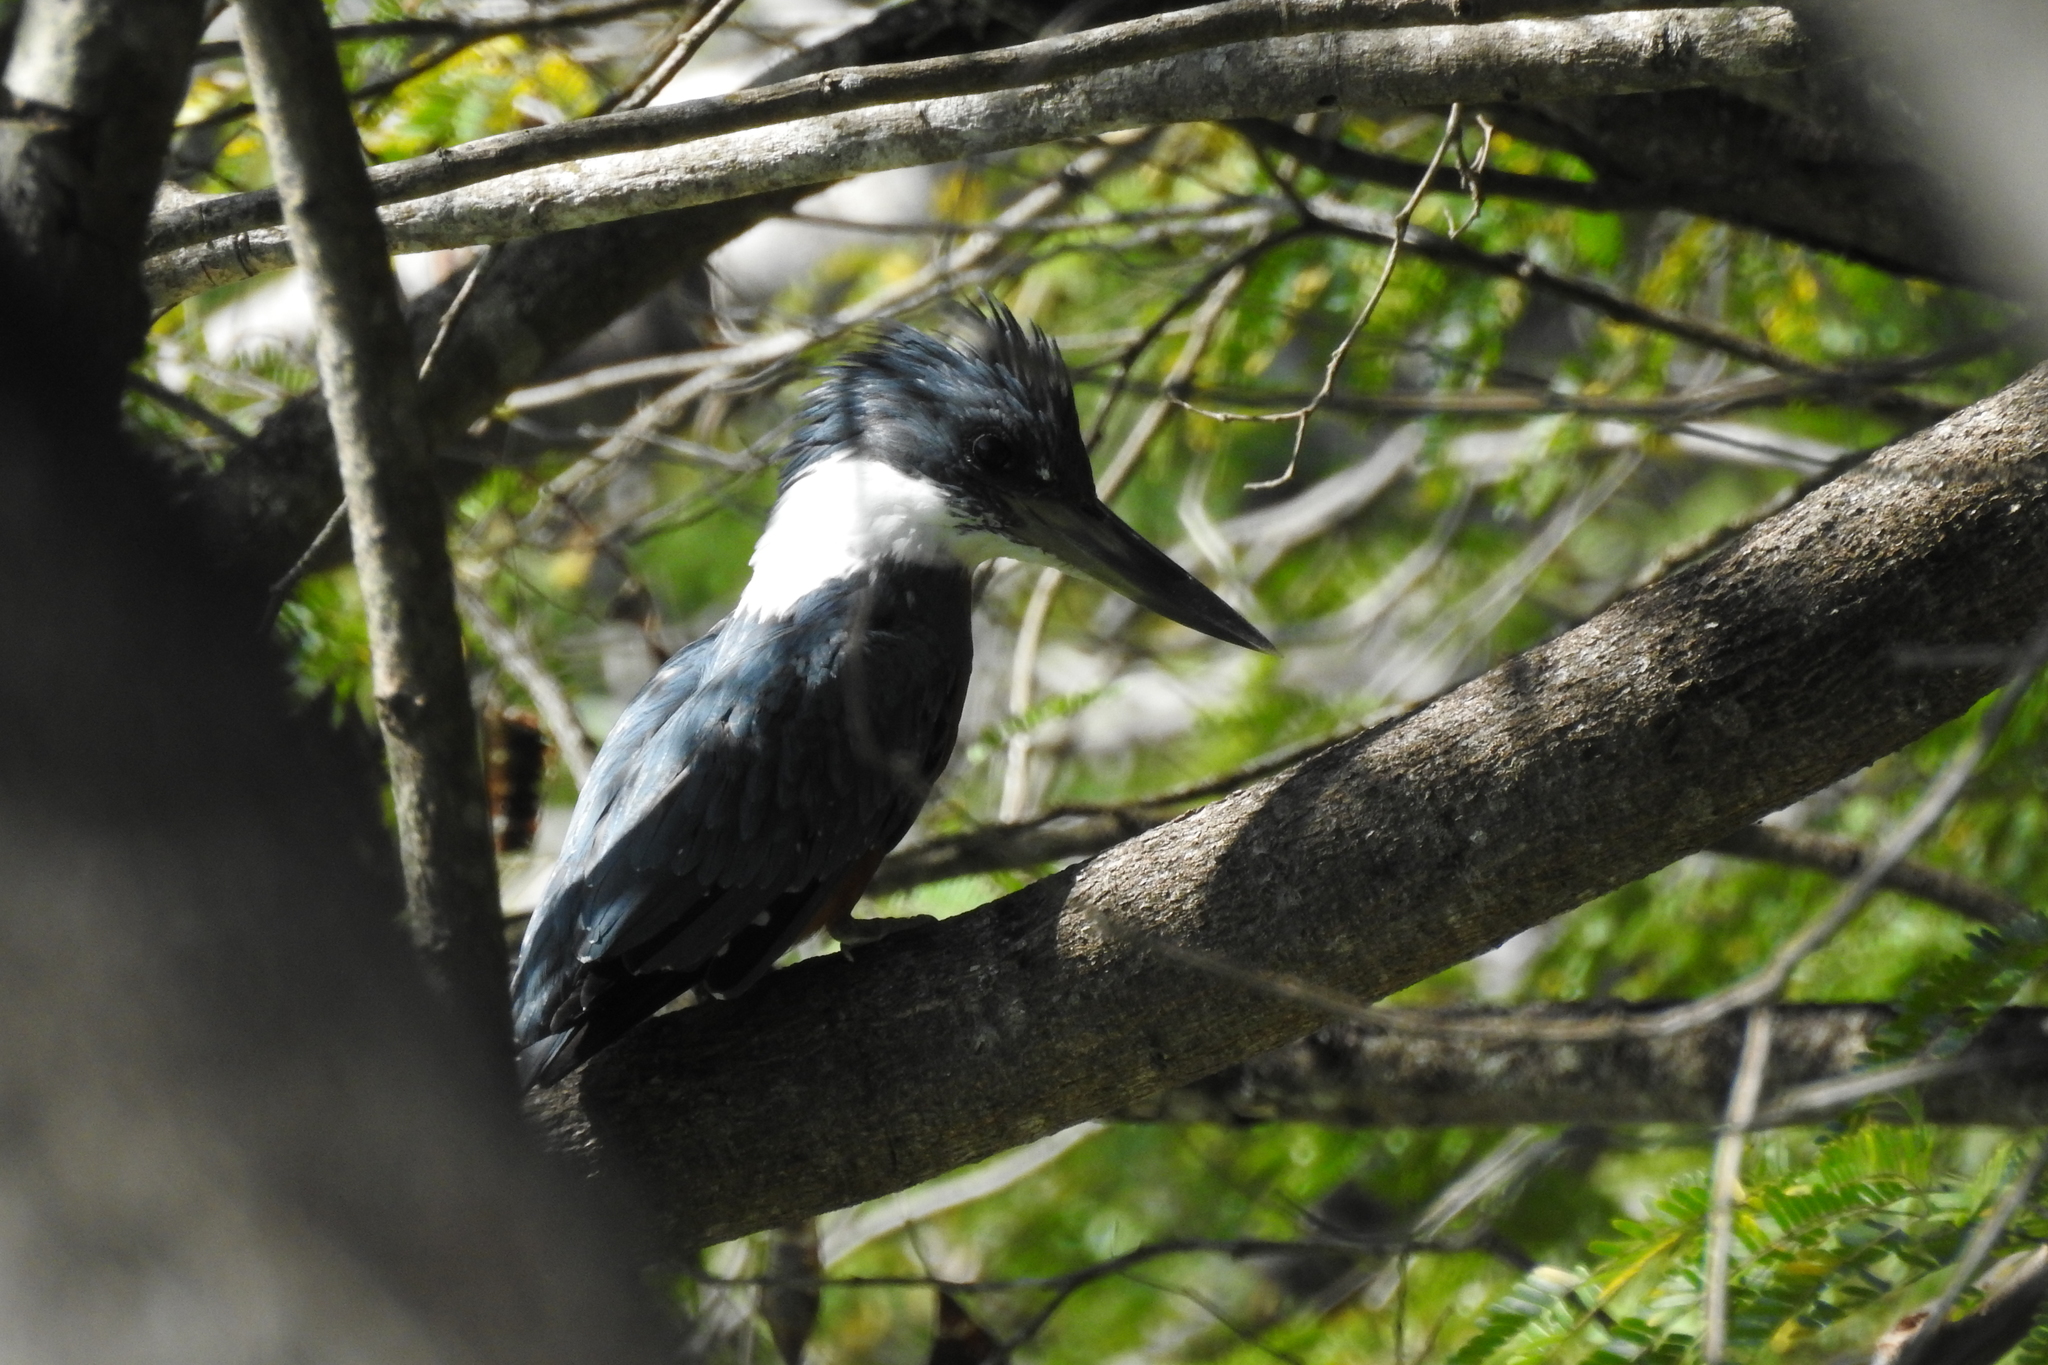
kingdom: Animalia
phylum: Chordata
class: Aves
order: Coraciiformes
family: Alcedinidae
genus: Megaceryle
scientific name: Megaceryle torquata
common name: Ringed kingfisher
